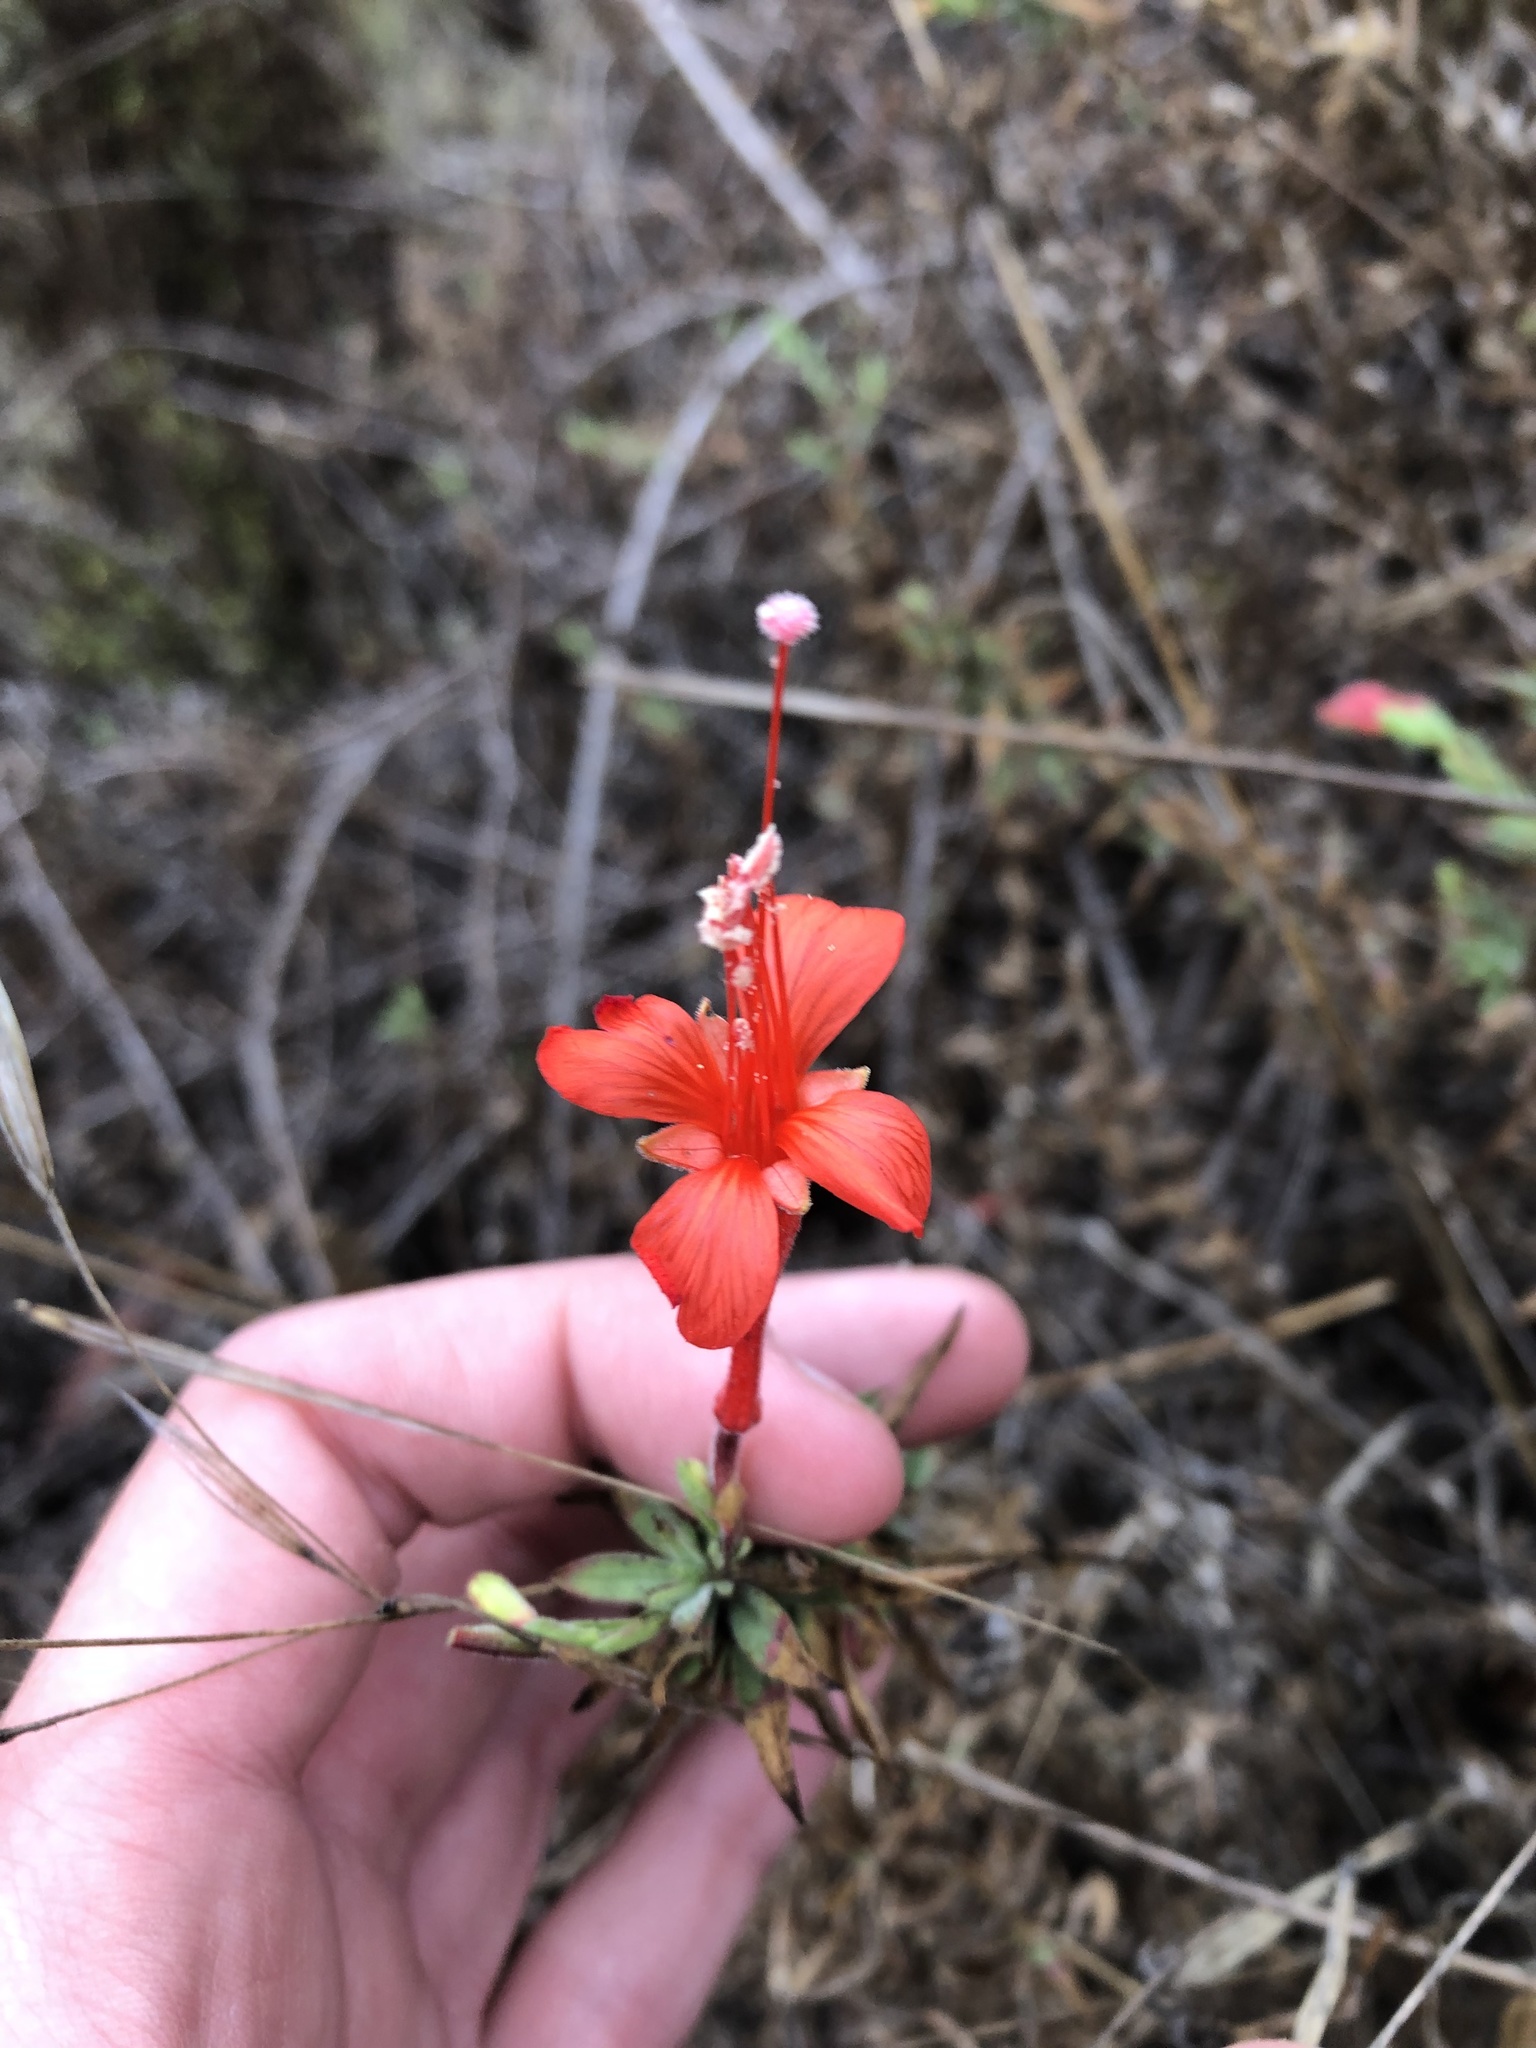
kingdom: Plantae
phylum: Tracheophyta
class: Magnoliopsida
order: Myrtales
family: Onagraceae
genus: Epilobium
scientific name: Epilobium canum
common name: California-fuchsia
